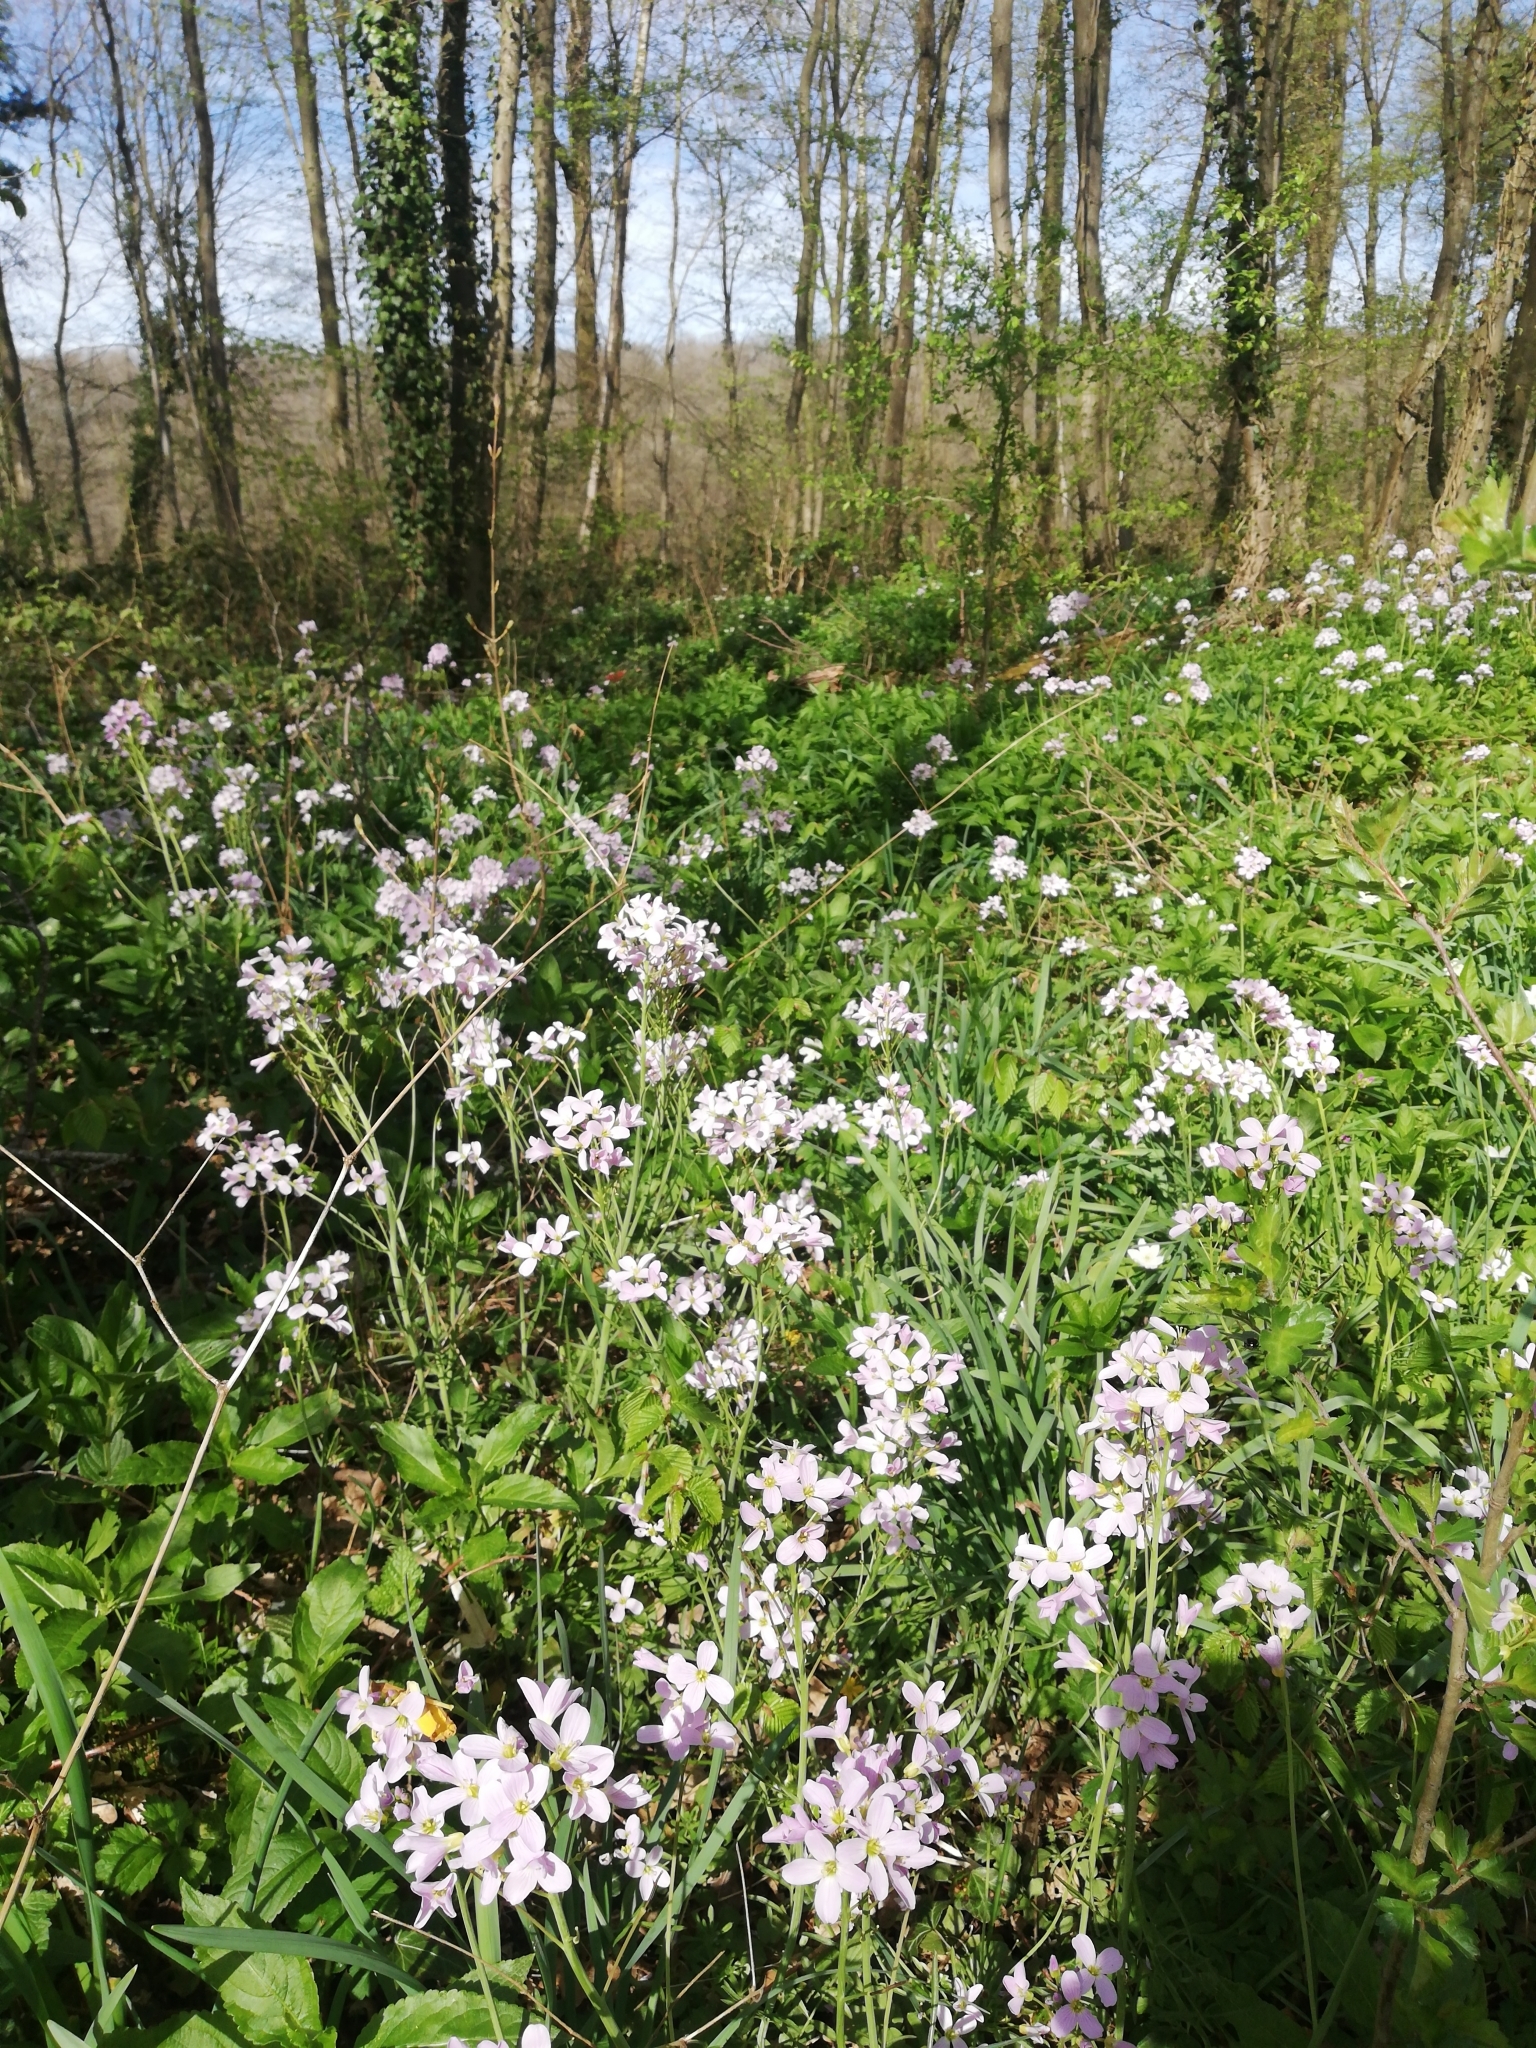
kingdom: Plantae
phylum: Tracheophyta
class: Magnoliopsida
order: Brassicales
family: Brassicaceae
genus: Cardamine
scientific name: Cardamine pratensis
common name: Cuckoo flower
